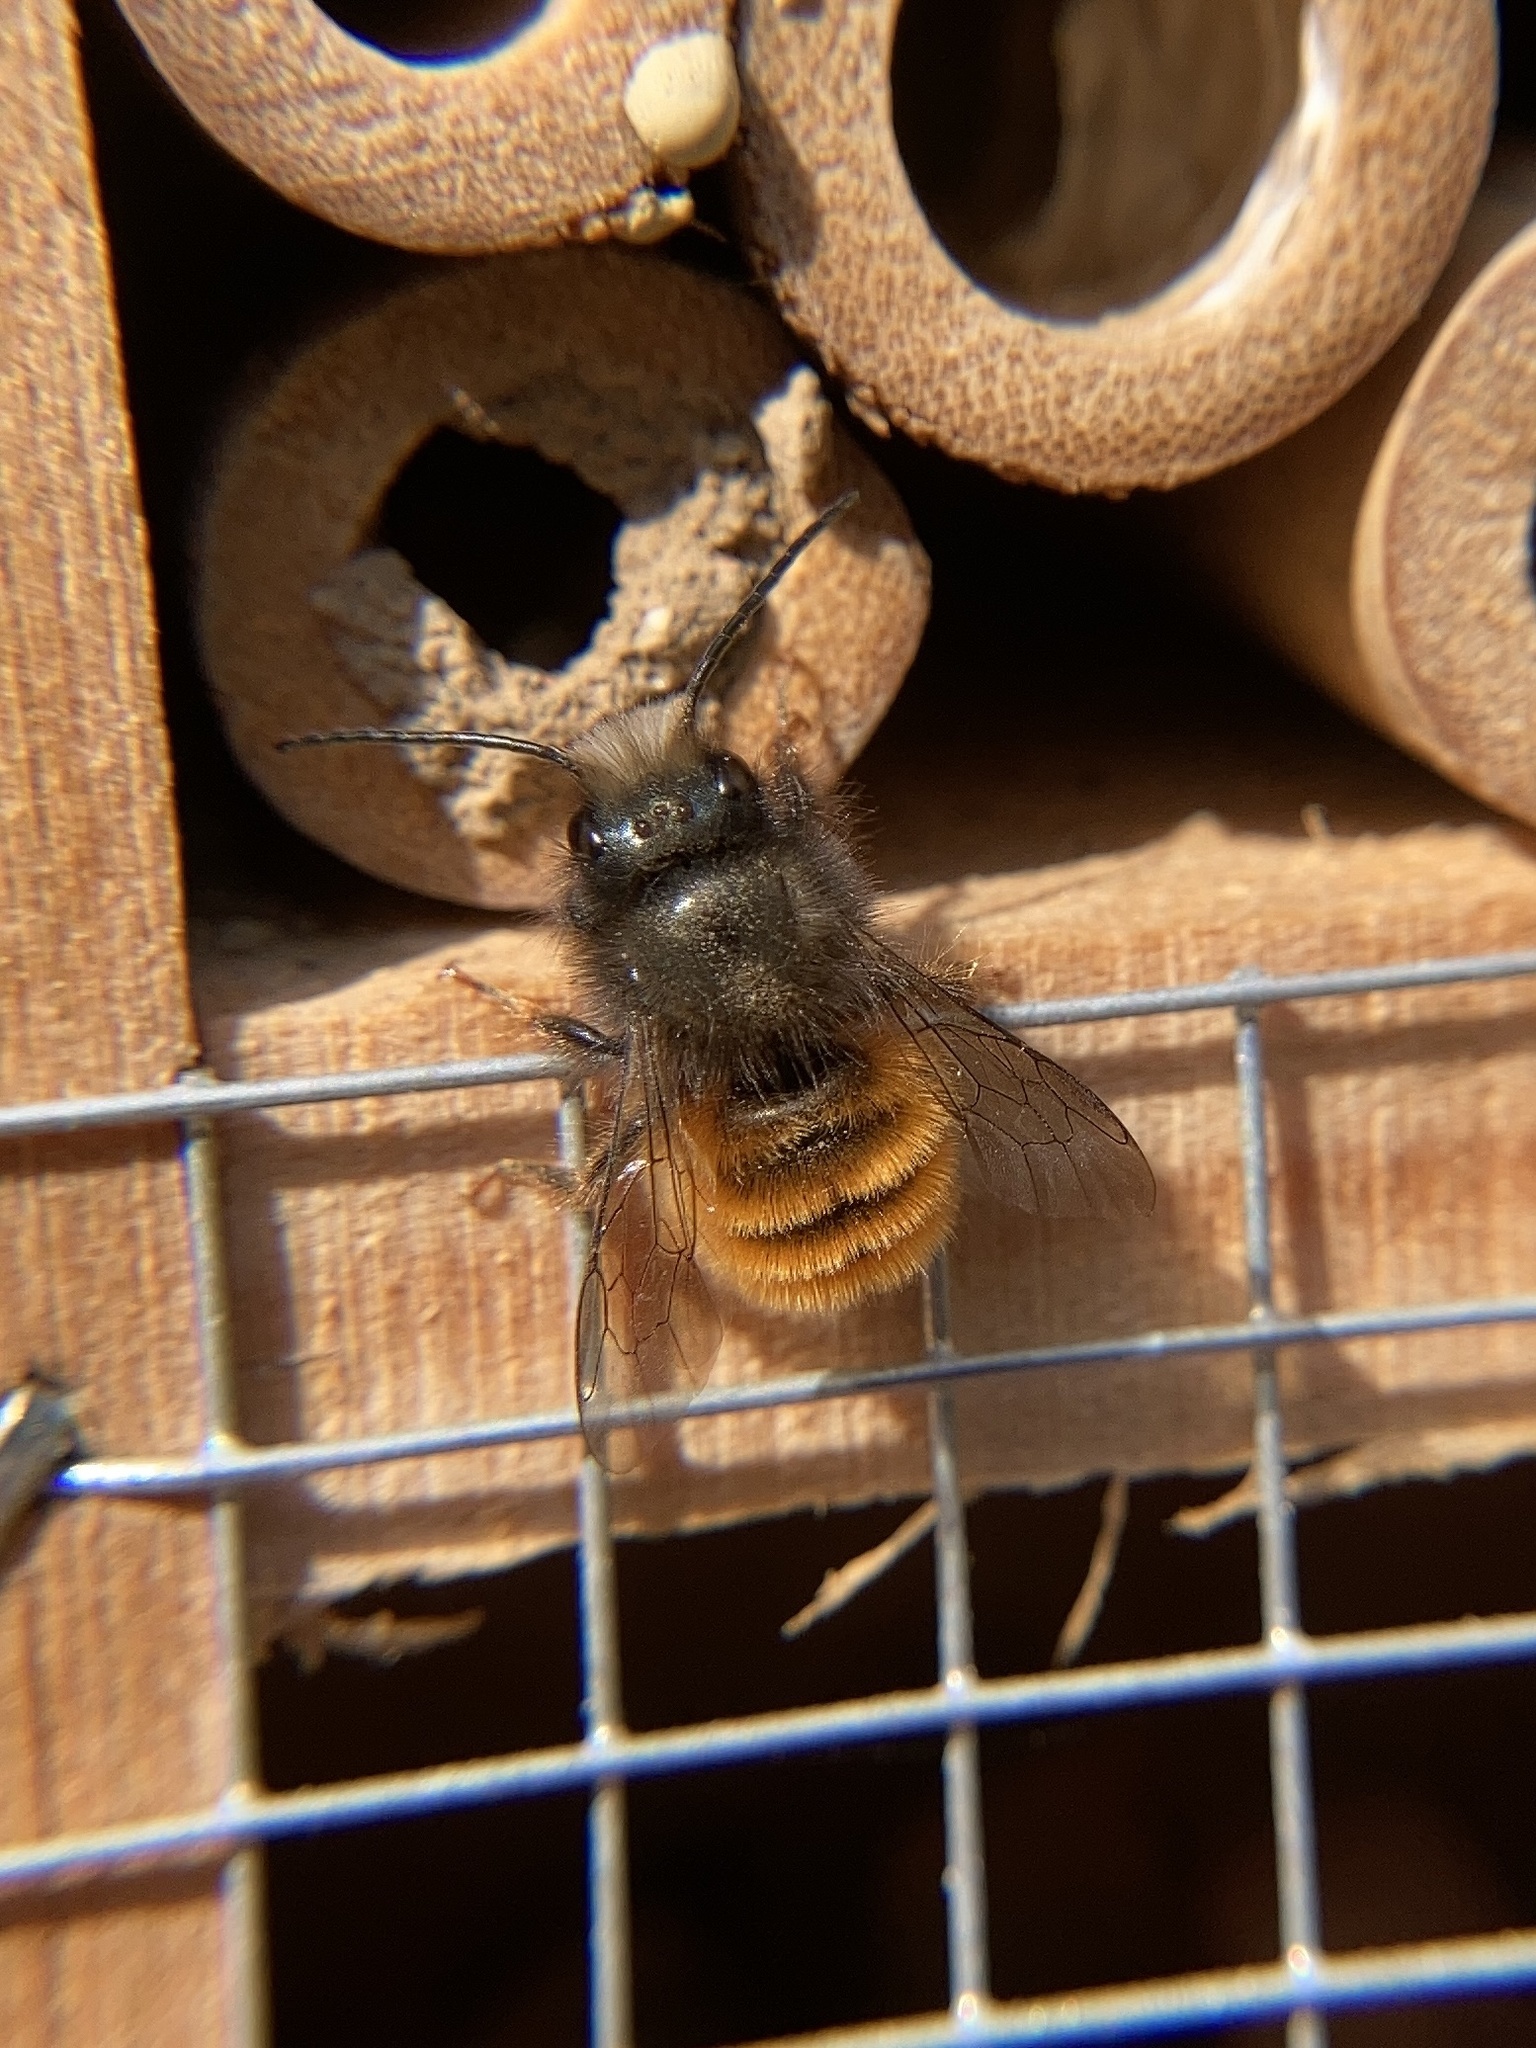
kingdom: Animalia
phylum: Arthropoda
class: Insecta
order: Hymenoptera
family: Megachilidae
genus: Osmia
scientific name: Osmia cornuta
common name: Mason bee
